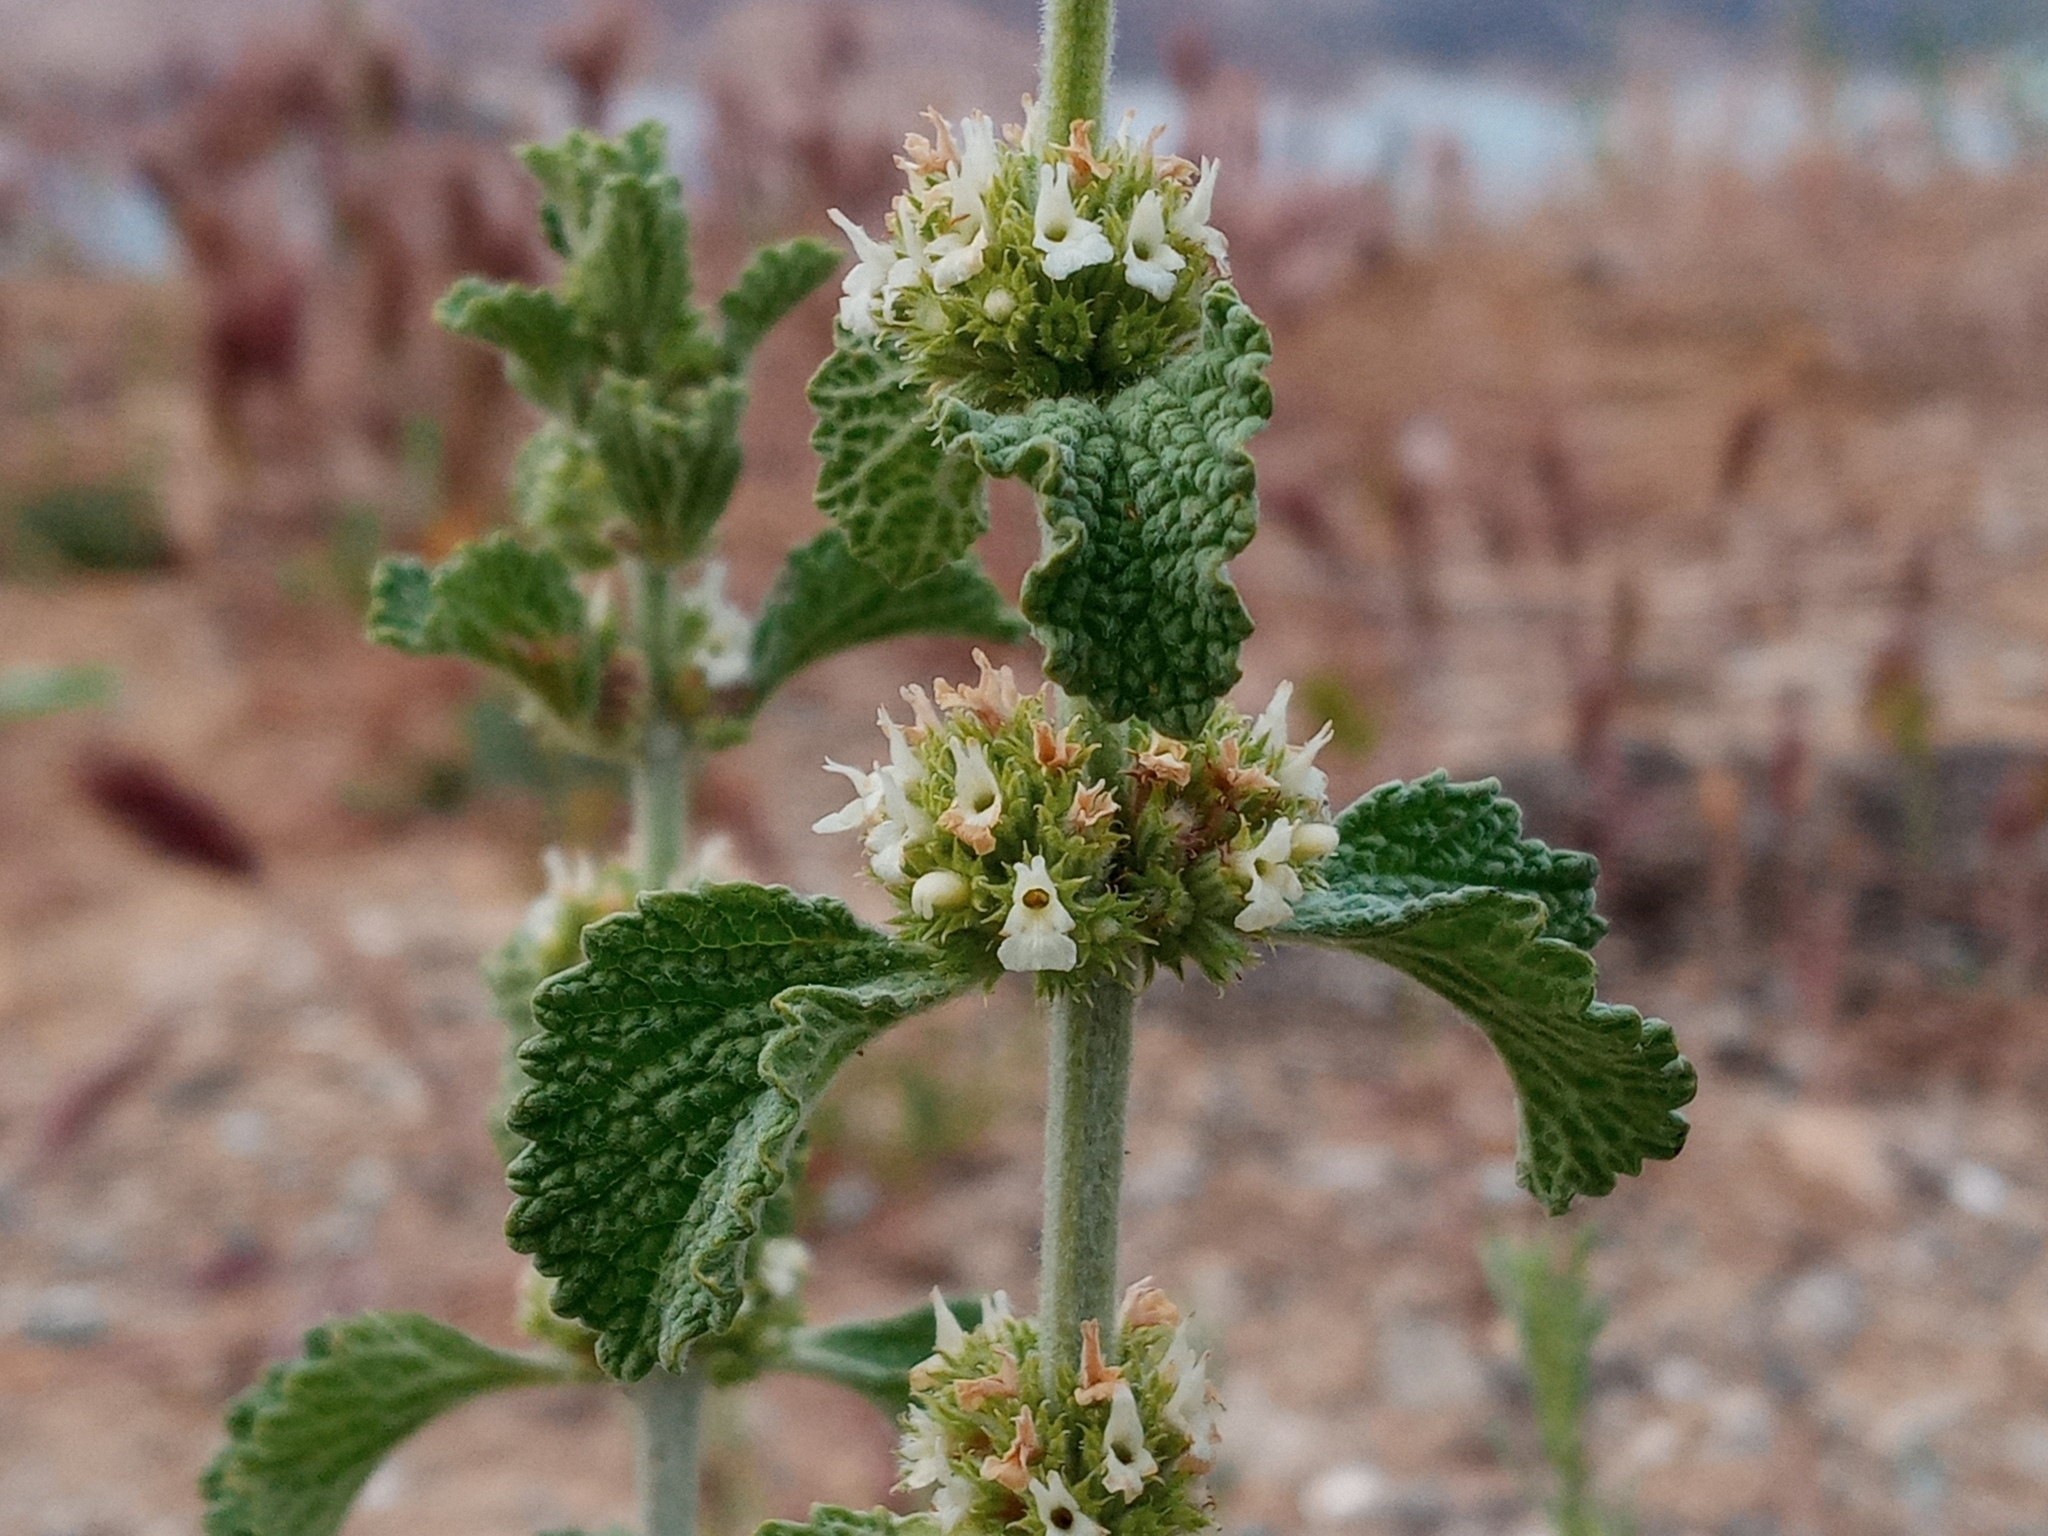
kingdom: Plantae
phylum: Tracheophyta
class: Magnoliopsida
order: Lamiales
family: Lamiaceae
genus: Marrubium
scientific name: Marrubium vulgare
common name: Horehound
